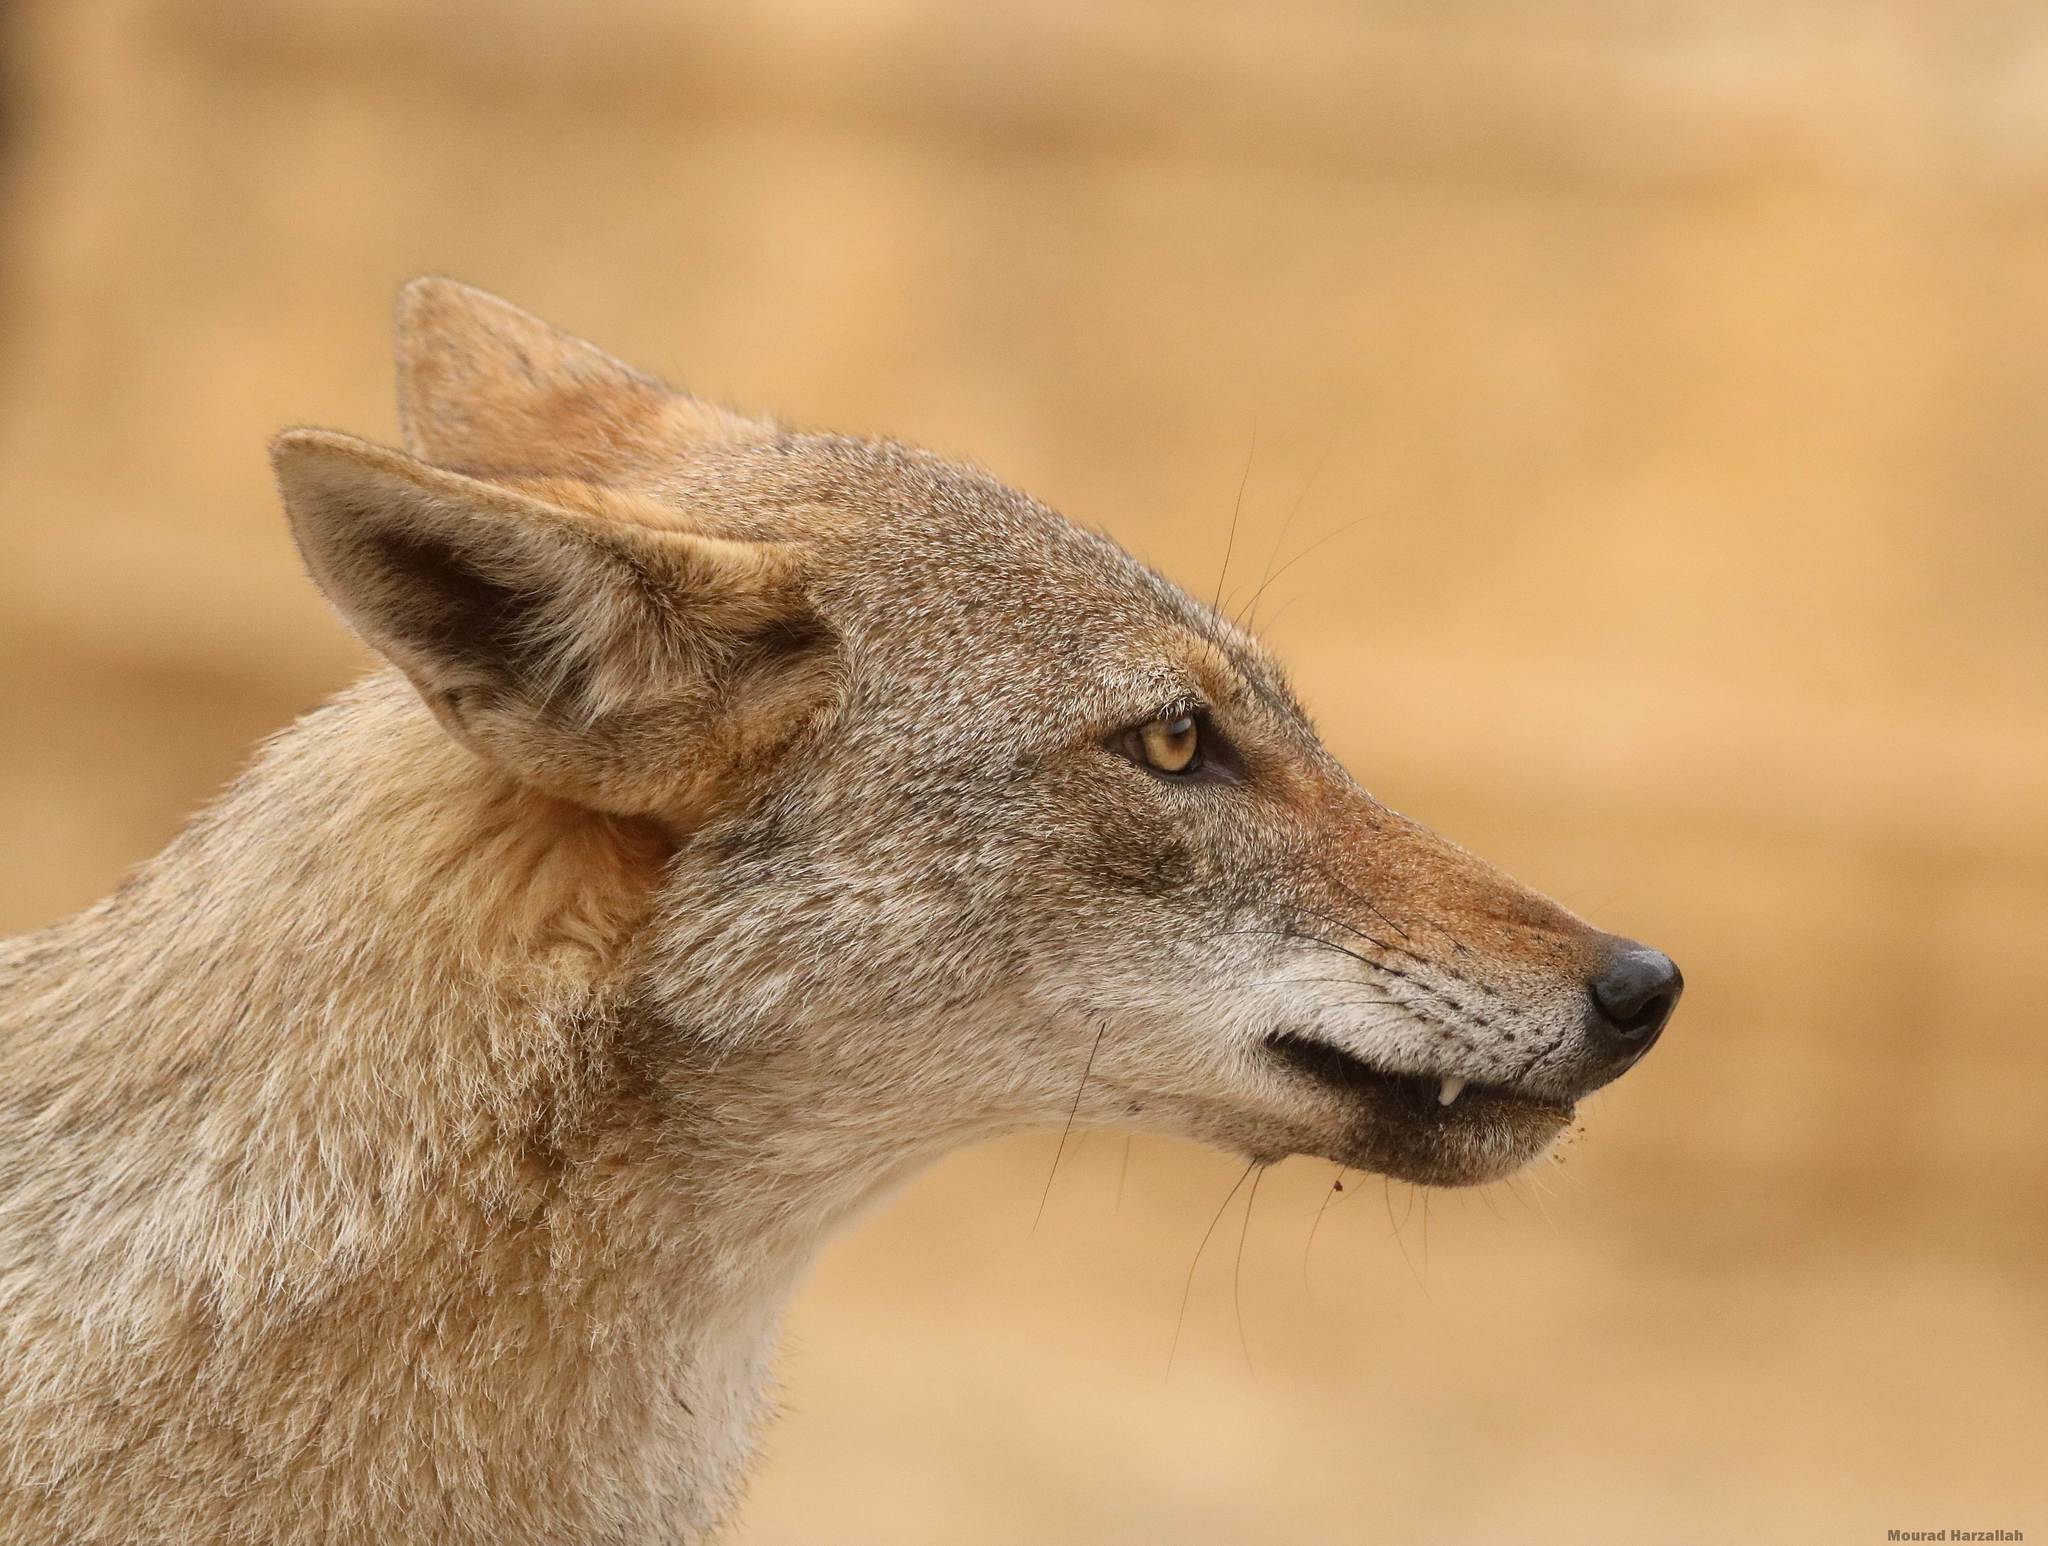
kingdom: Animalia
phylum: Chordata
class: Mammalia
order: Carnivora
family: Canidae
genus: Canis
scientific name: Canis lupaster
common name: African golden wolf
